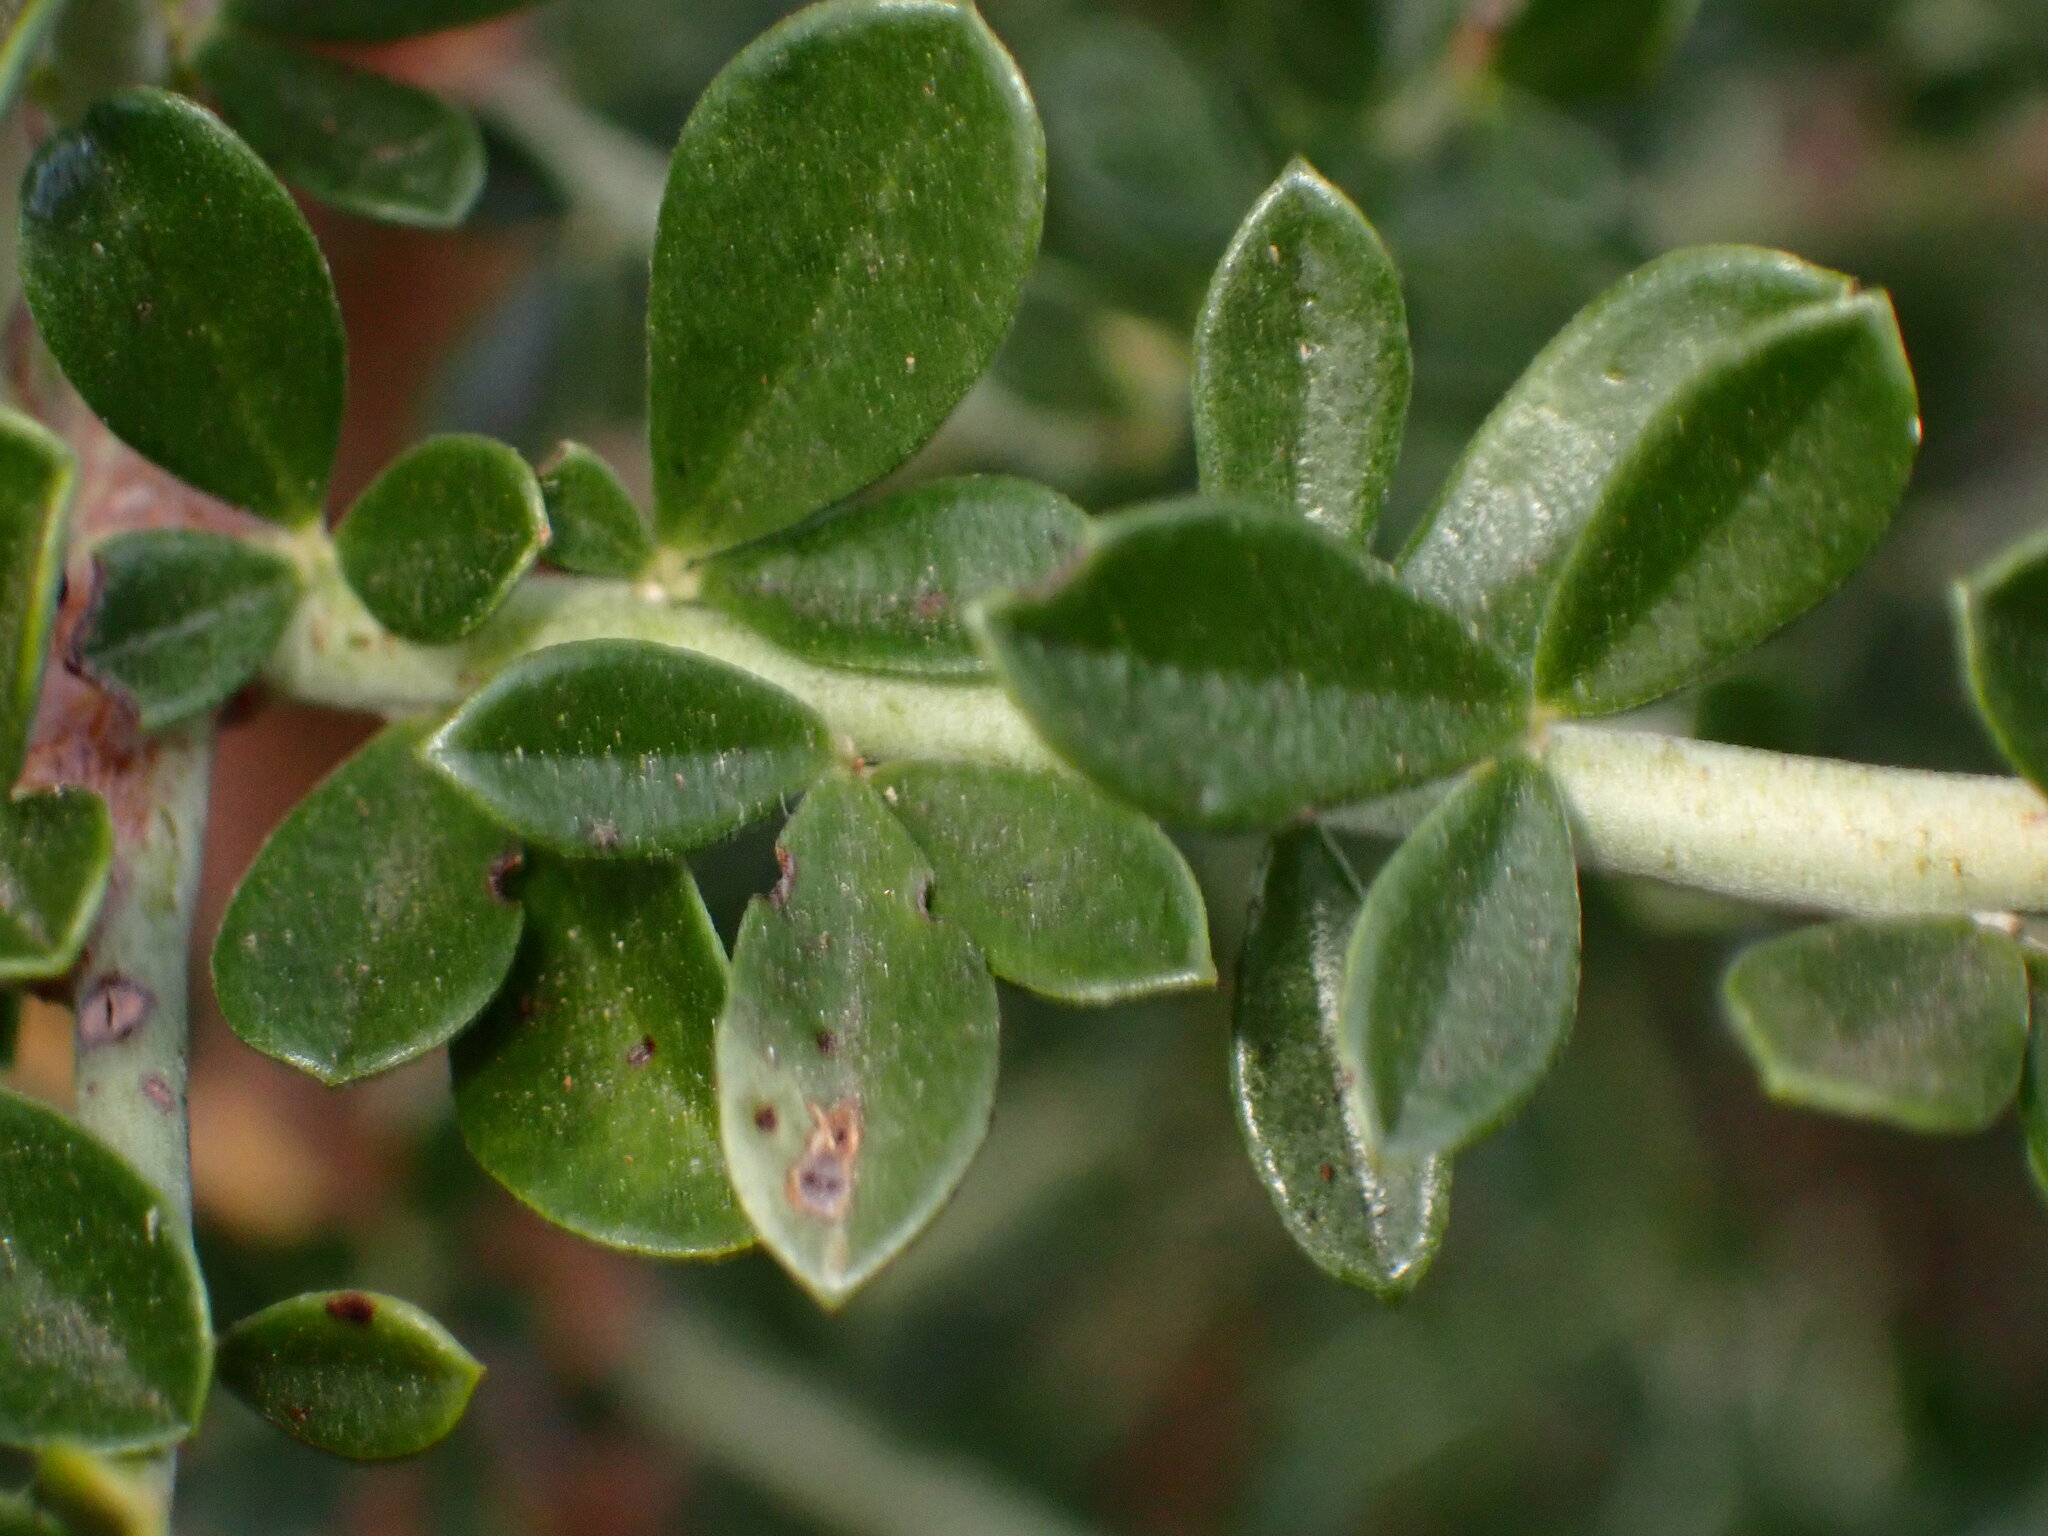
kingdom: Plantae
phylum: Tracheophyta
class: Magnoliopsida
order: Fabales
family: Fabaceae
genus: Pickeringia
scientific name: Pickeringia montana
